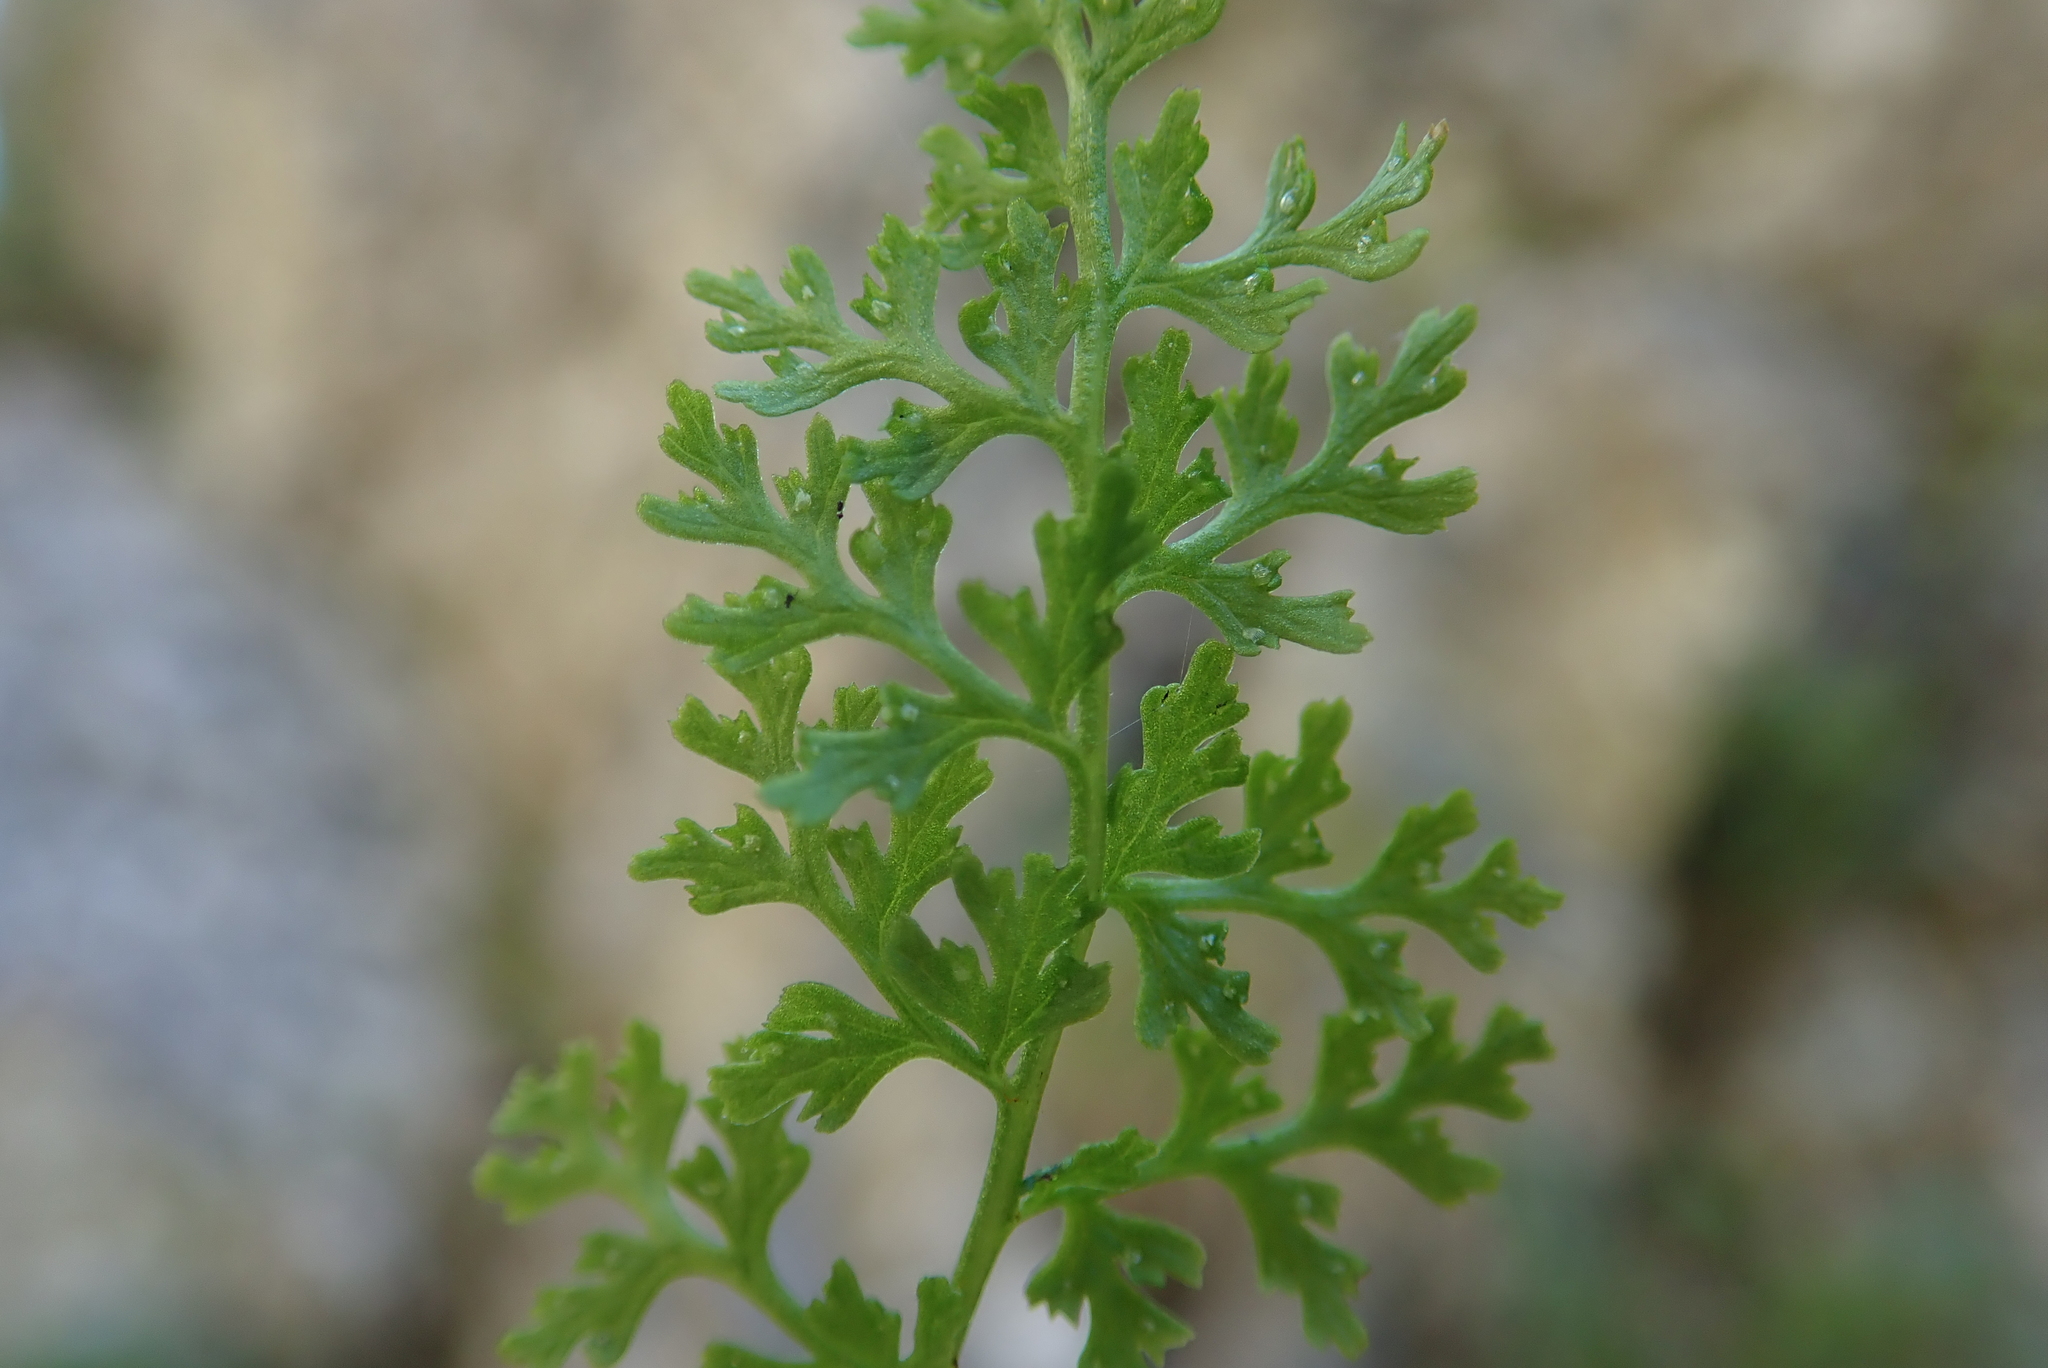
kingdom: Plantae
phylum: Tracheophyta
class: Polypodiopsida
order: Polypodiales
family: Cystopteridaceae
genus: Cystopteris
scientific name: Cystopteris alpina
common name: Alpine bladder-fern
